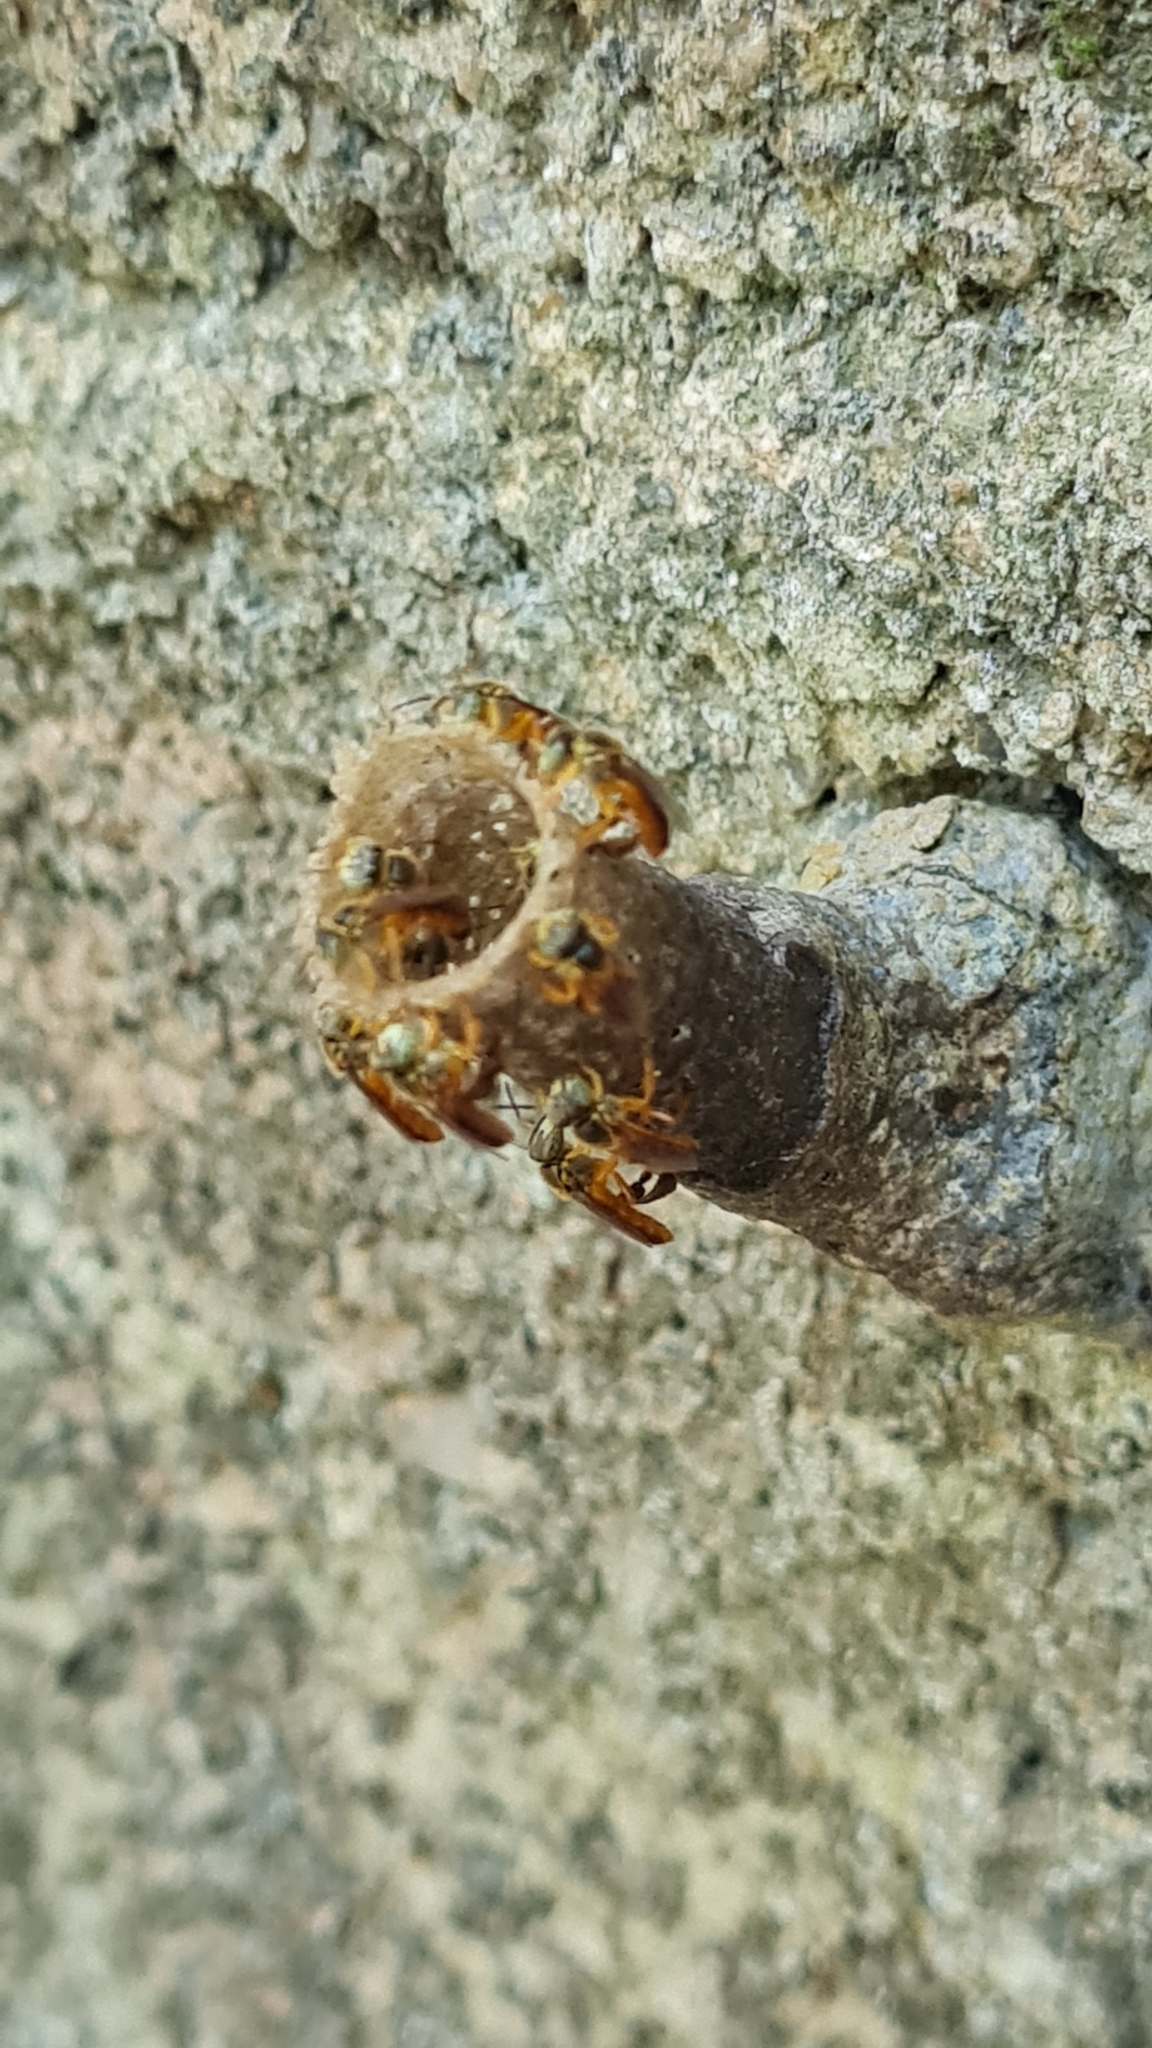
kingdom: Animalia
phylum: Arthropoda
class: Insecta
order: Hymenoptera
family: Apidae
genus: Tetragonisca
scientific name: Tetragonisca angustula
